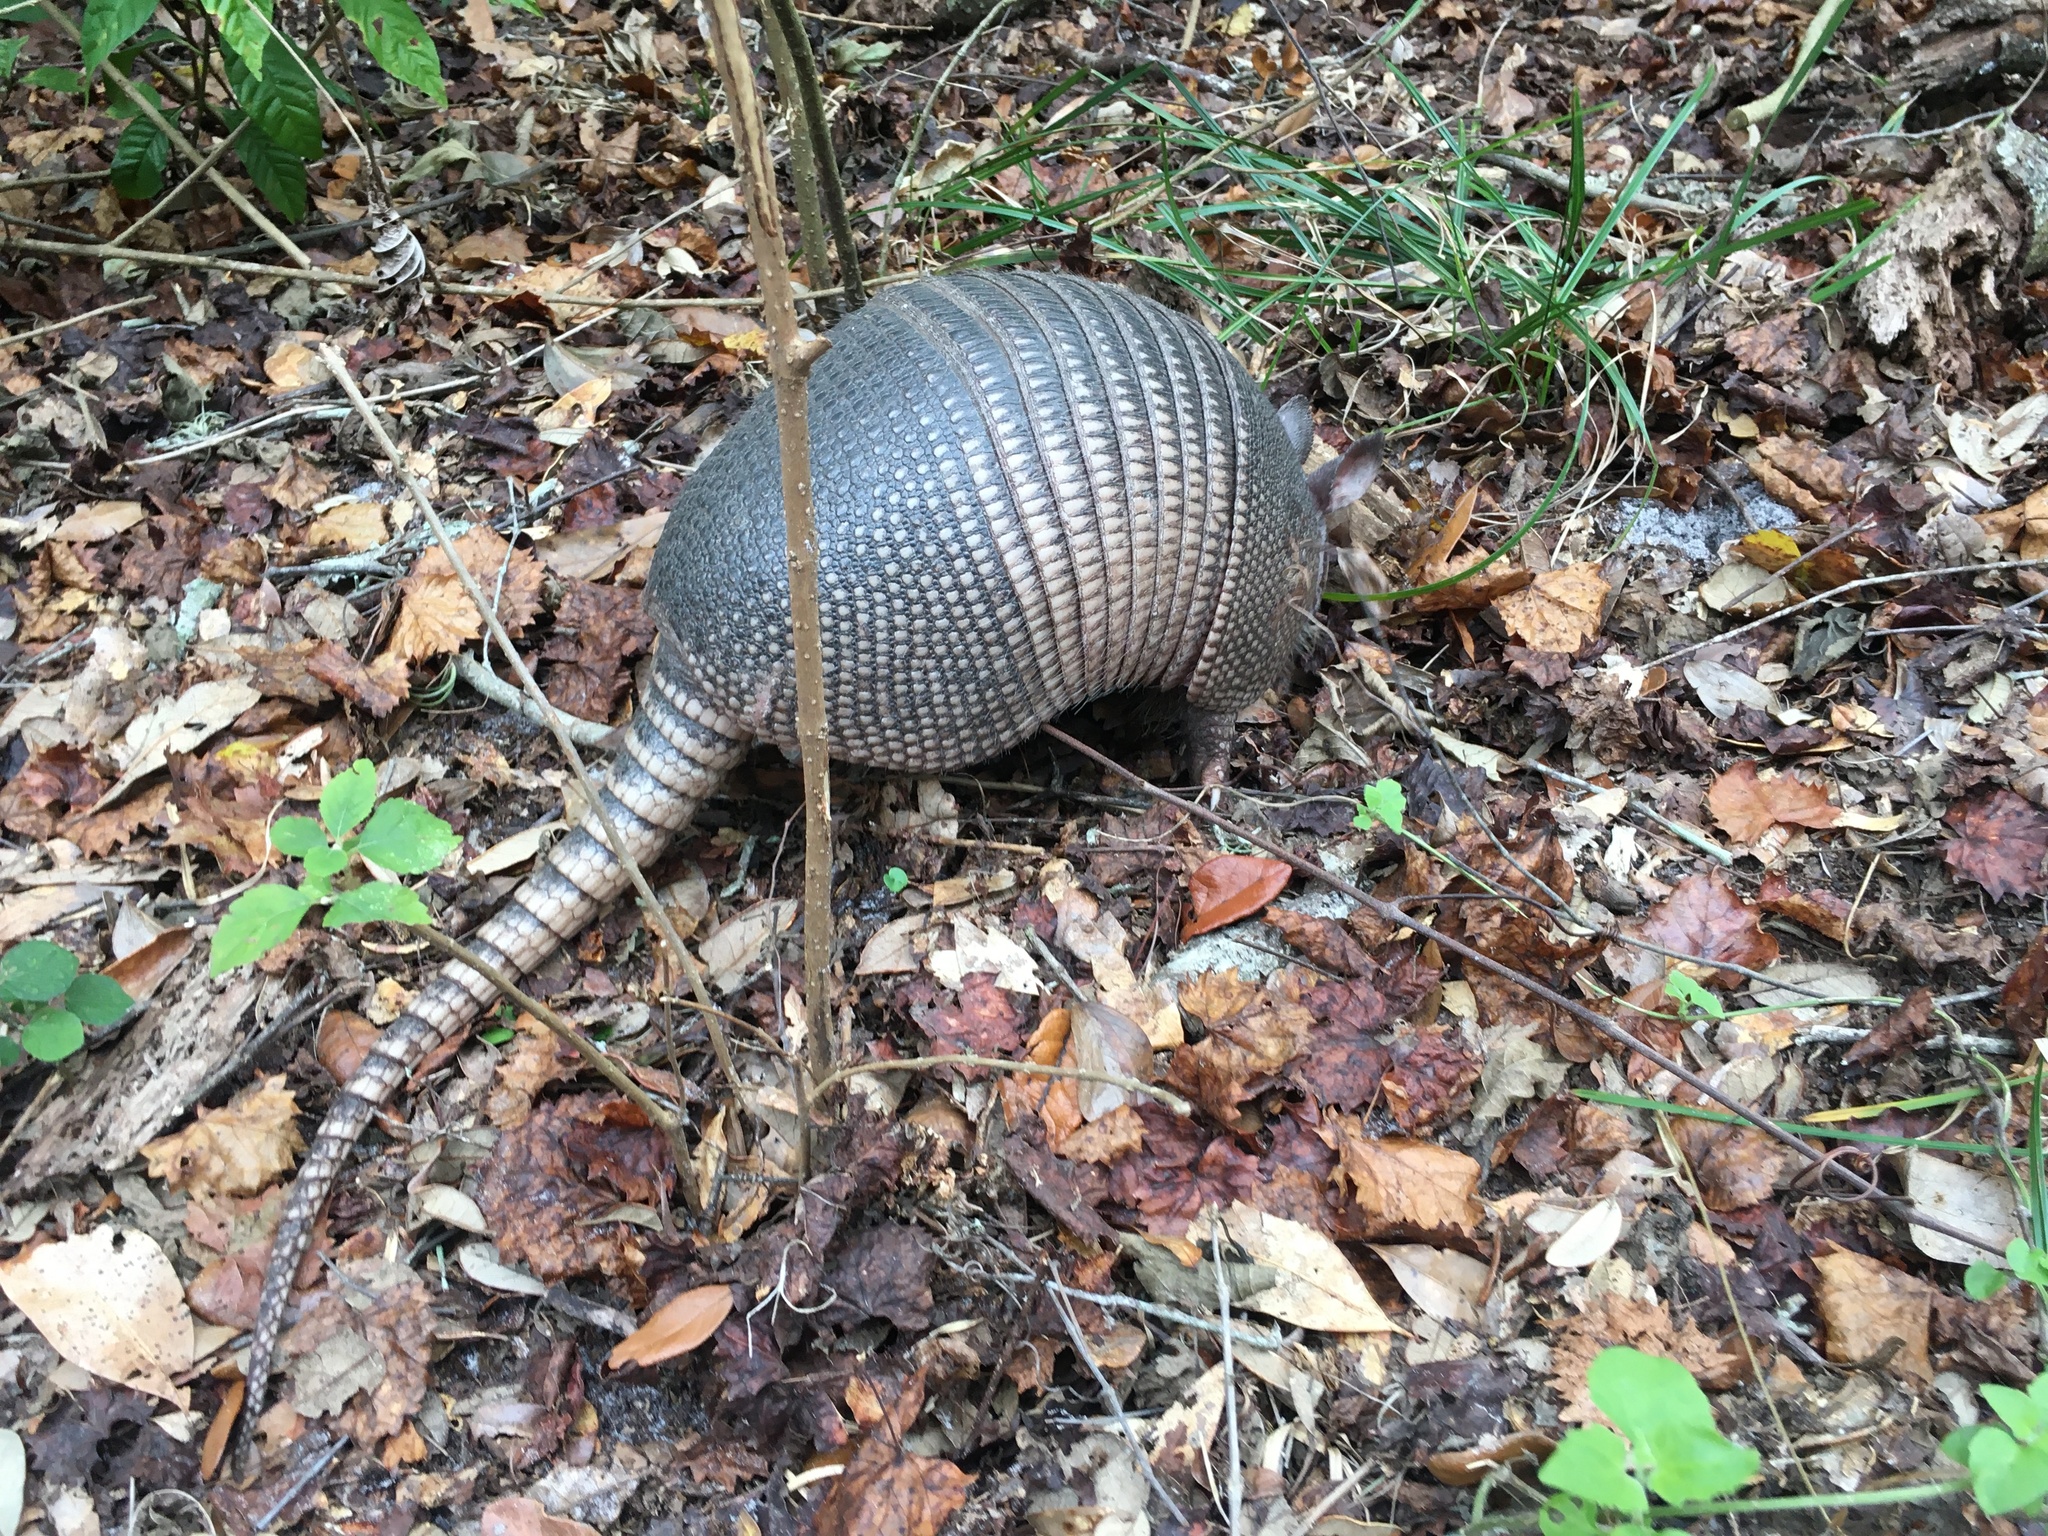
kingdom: Animalia
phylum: Chordata
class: Mammalia
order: Cingulata
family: Dasypodidae
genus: Dasypus
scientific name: Dasypus novemcinctus
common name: Nine-banded armadillo
